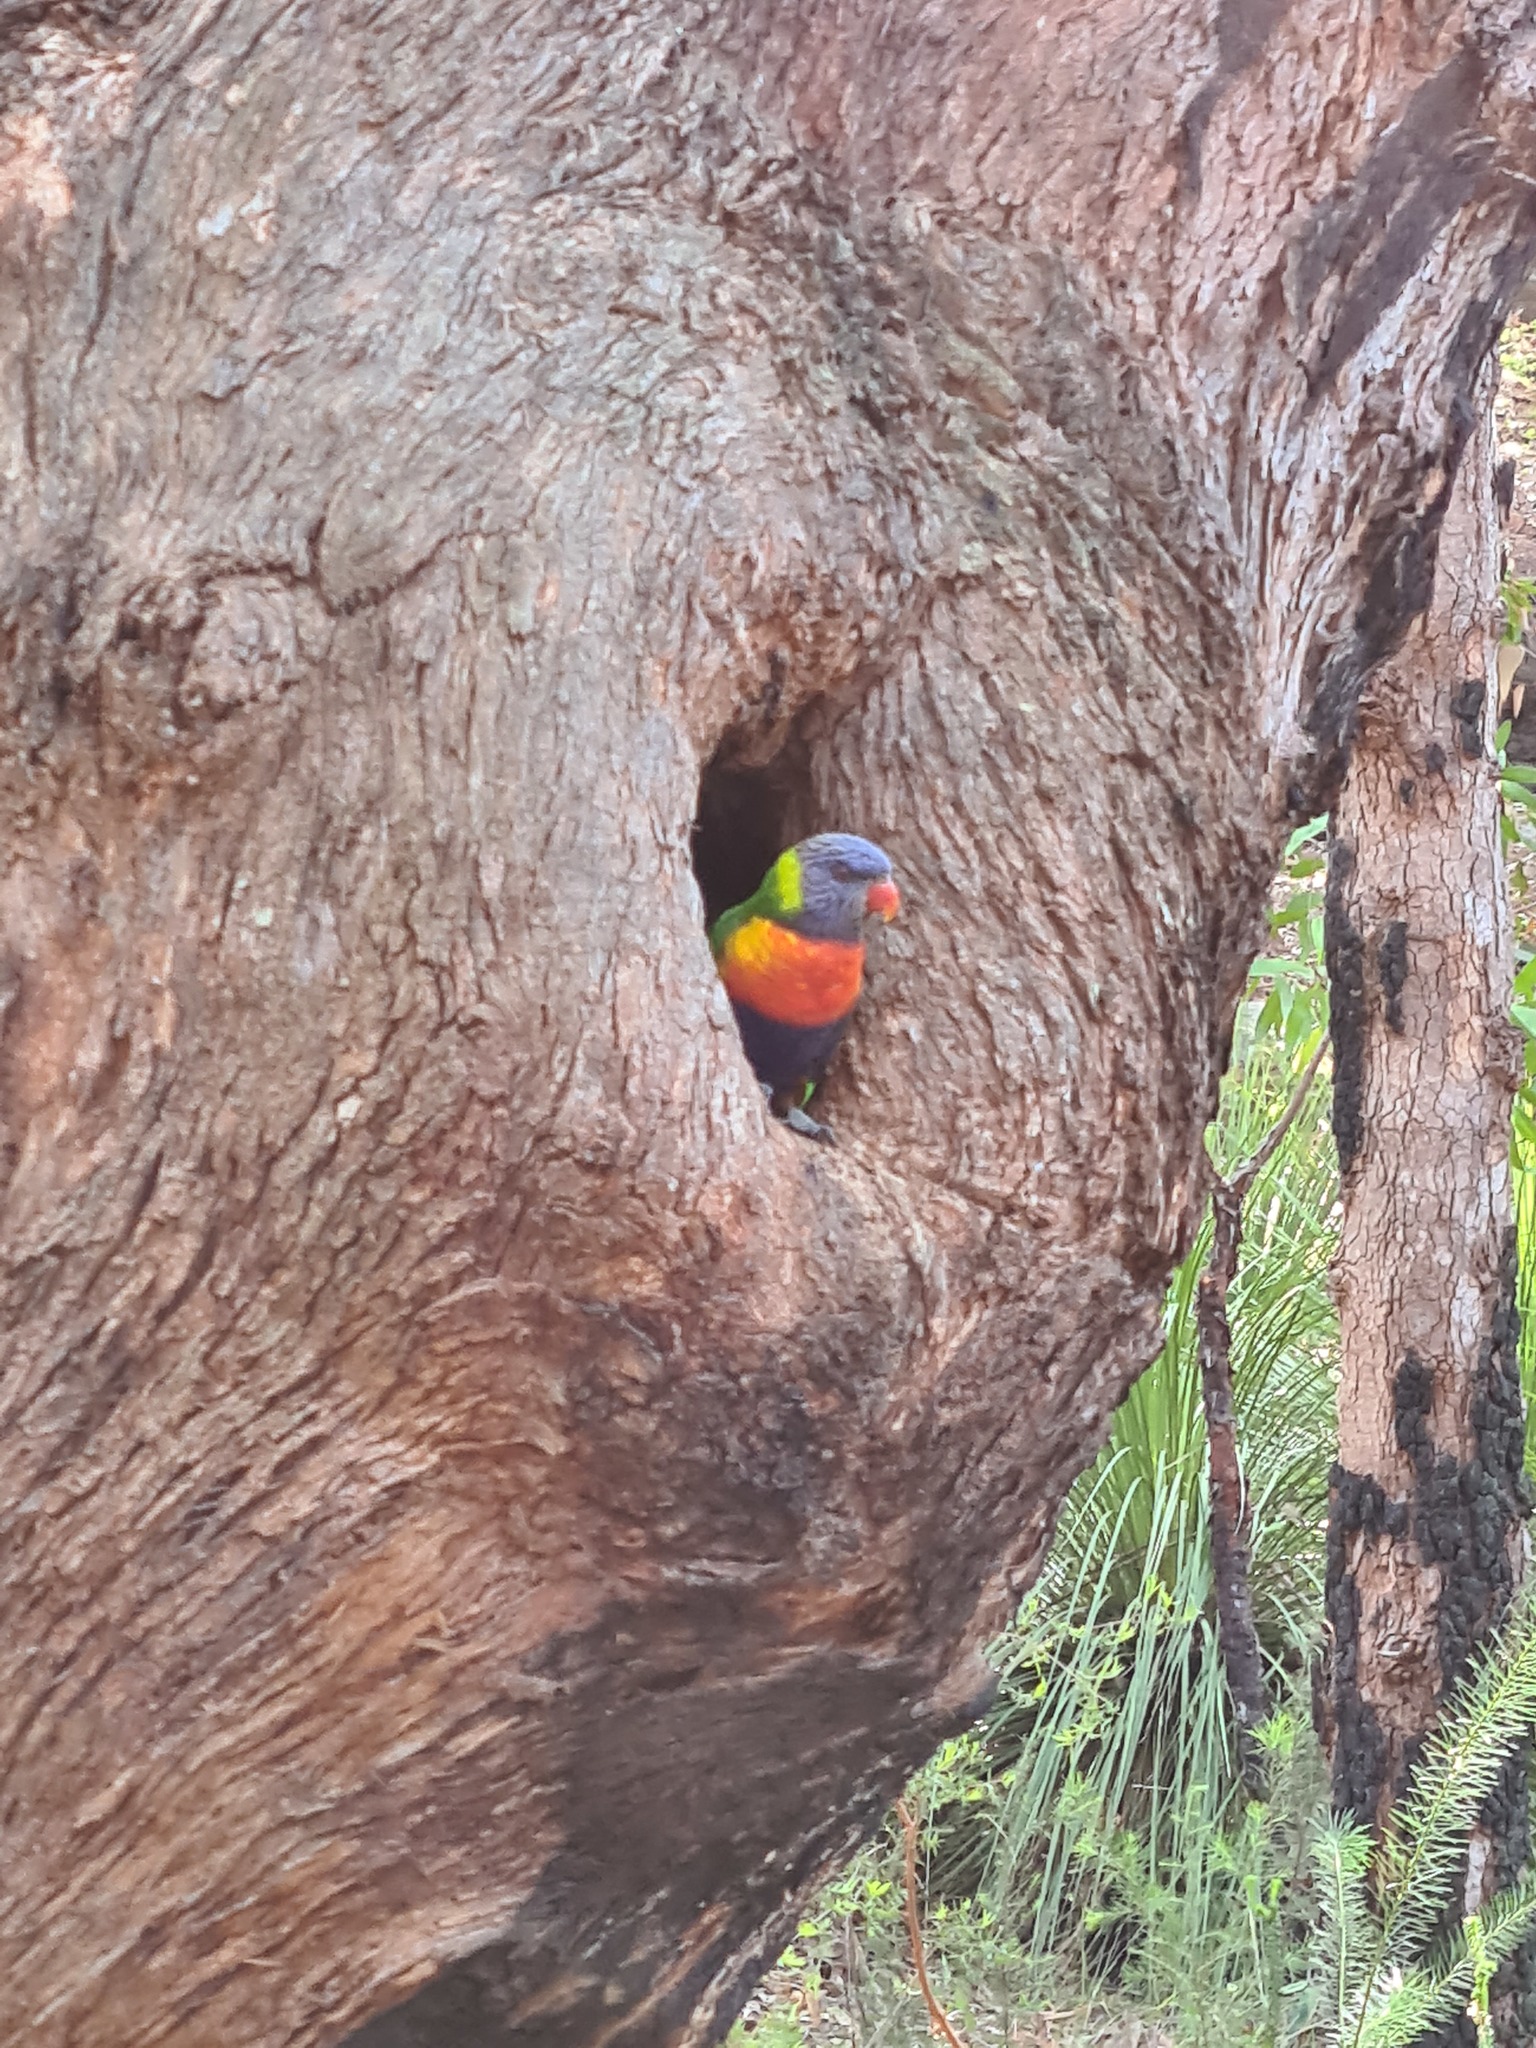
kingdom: Animalia
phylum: Chordata
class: Aves
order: Psittaciformes
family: Psittacidae
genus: Trichoglossus
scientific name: Trichoglossus haematodus
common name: Coconut lorikeet
